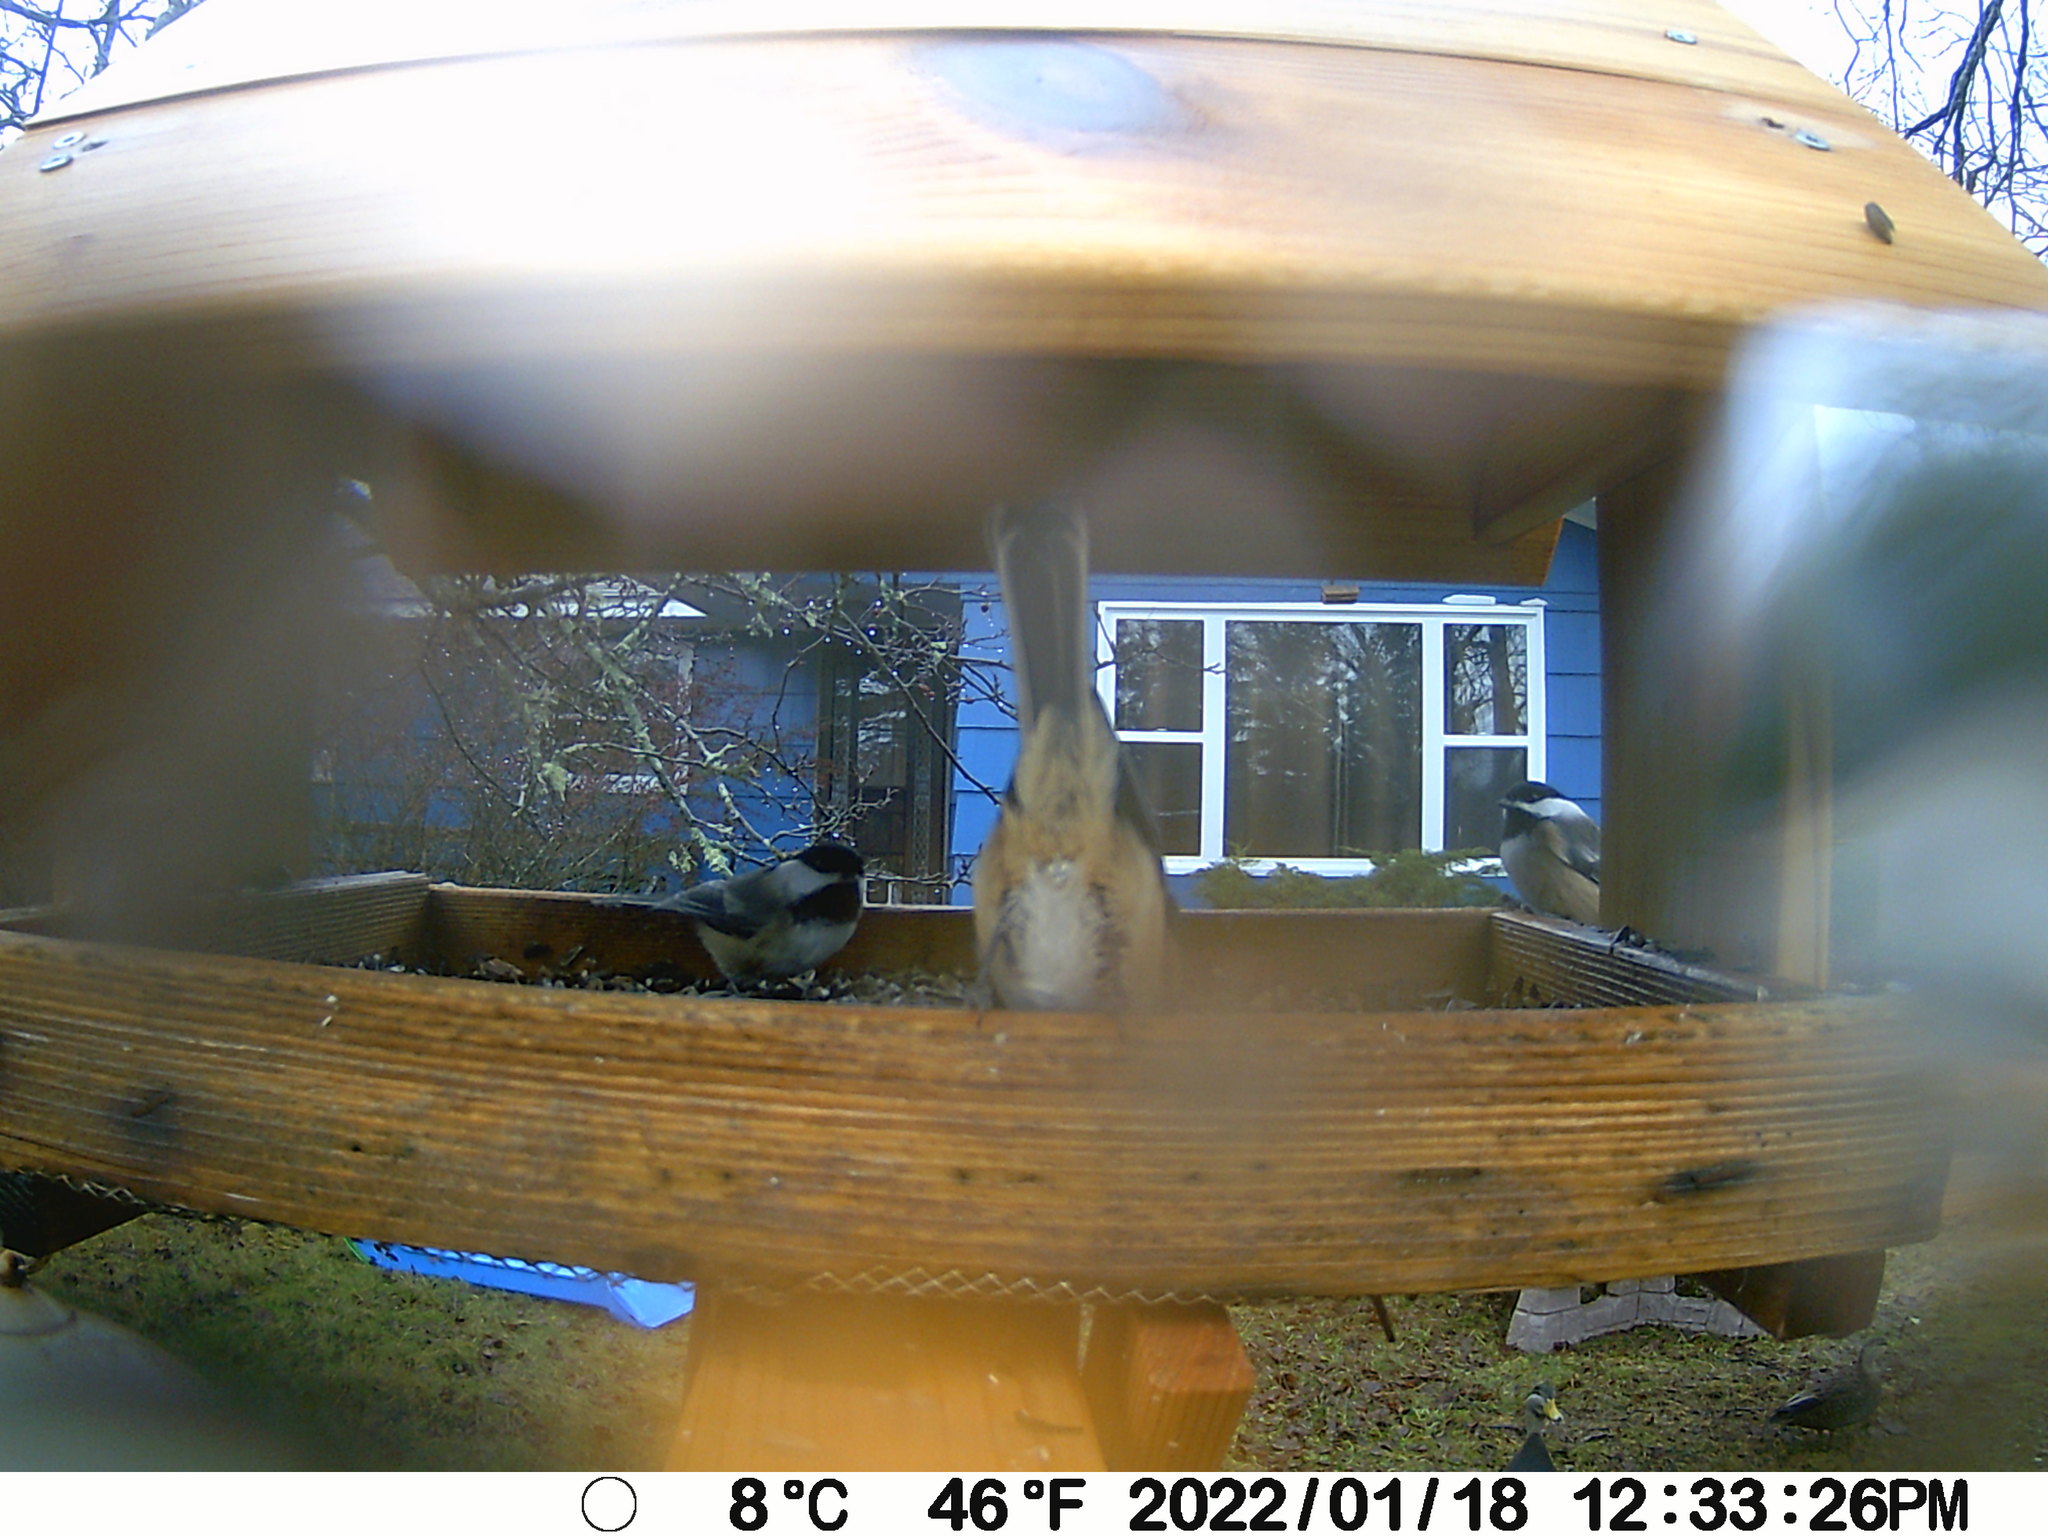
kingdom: Animalia
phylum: Chordata
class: Aves
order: Passeriformes
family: Paridae
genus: Poecile
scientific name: Poecile atricapillus
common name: Black-capped chickadee
